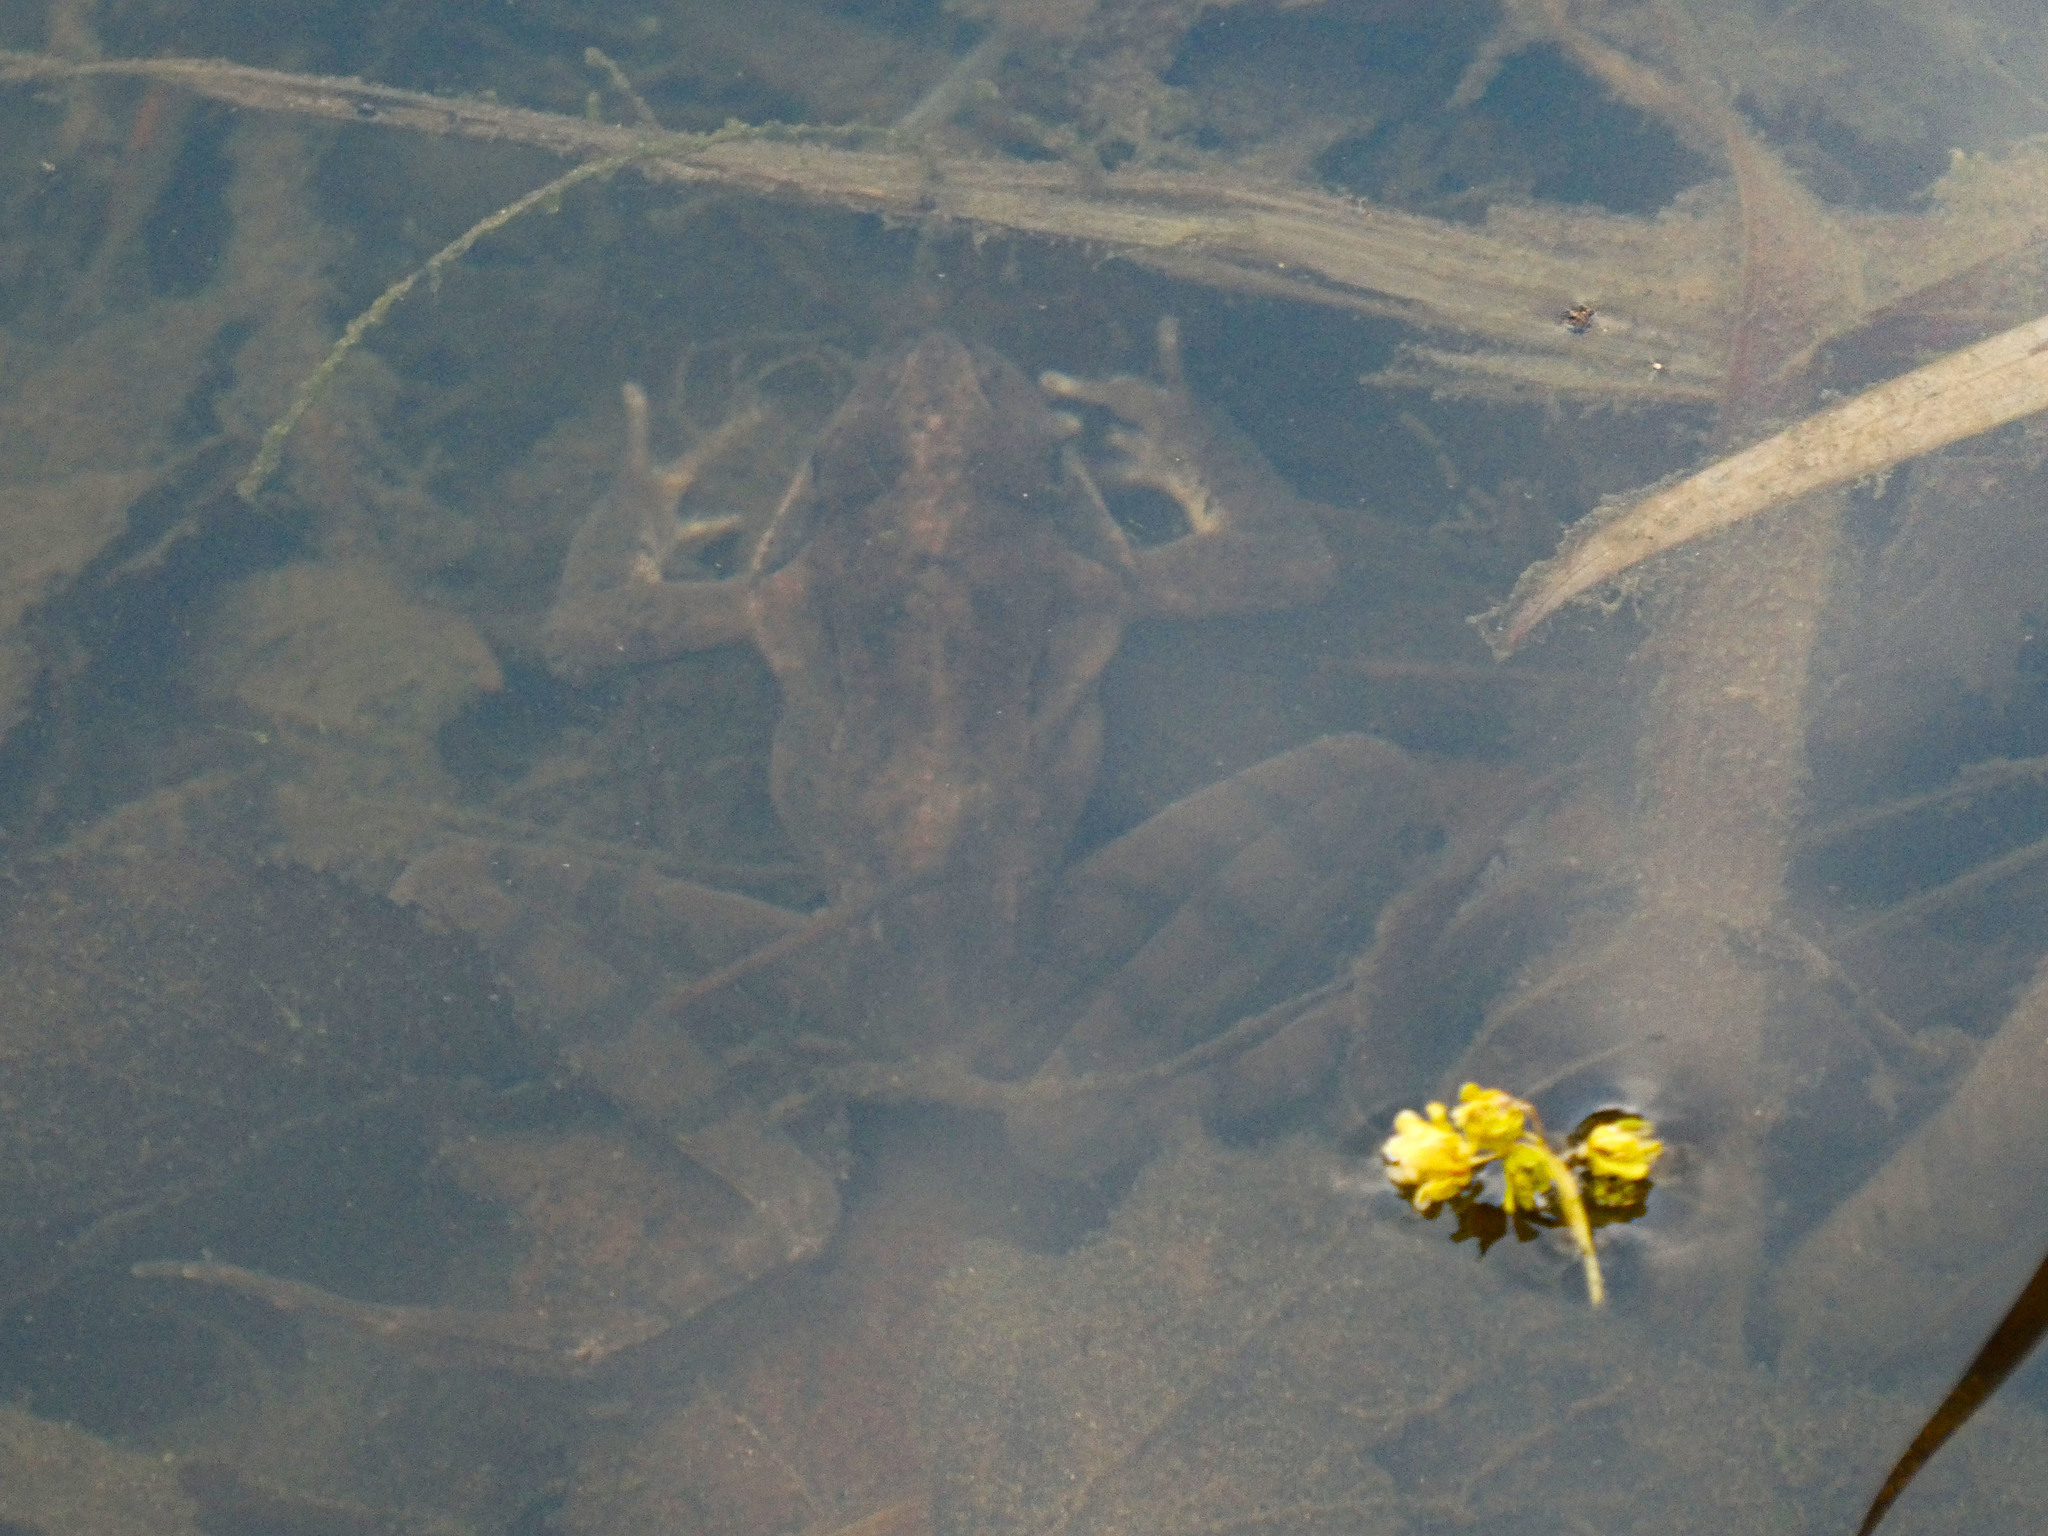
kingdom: Animalia
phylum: Chordata
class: Amphibia
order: Anura
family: Ranidae
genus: Rana
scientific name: Rana dalmatina
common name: Agile frog
